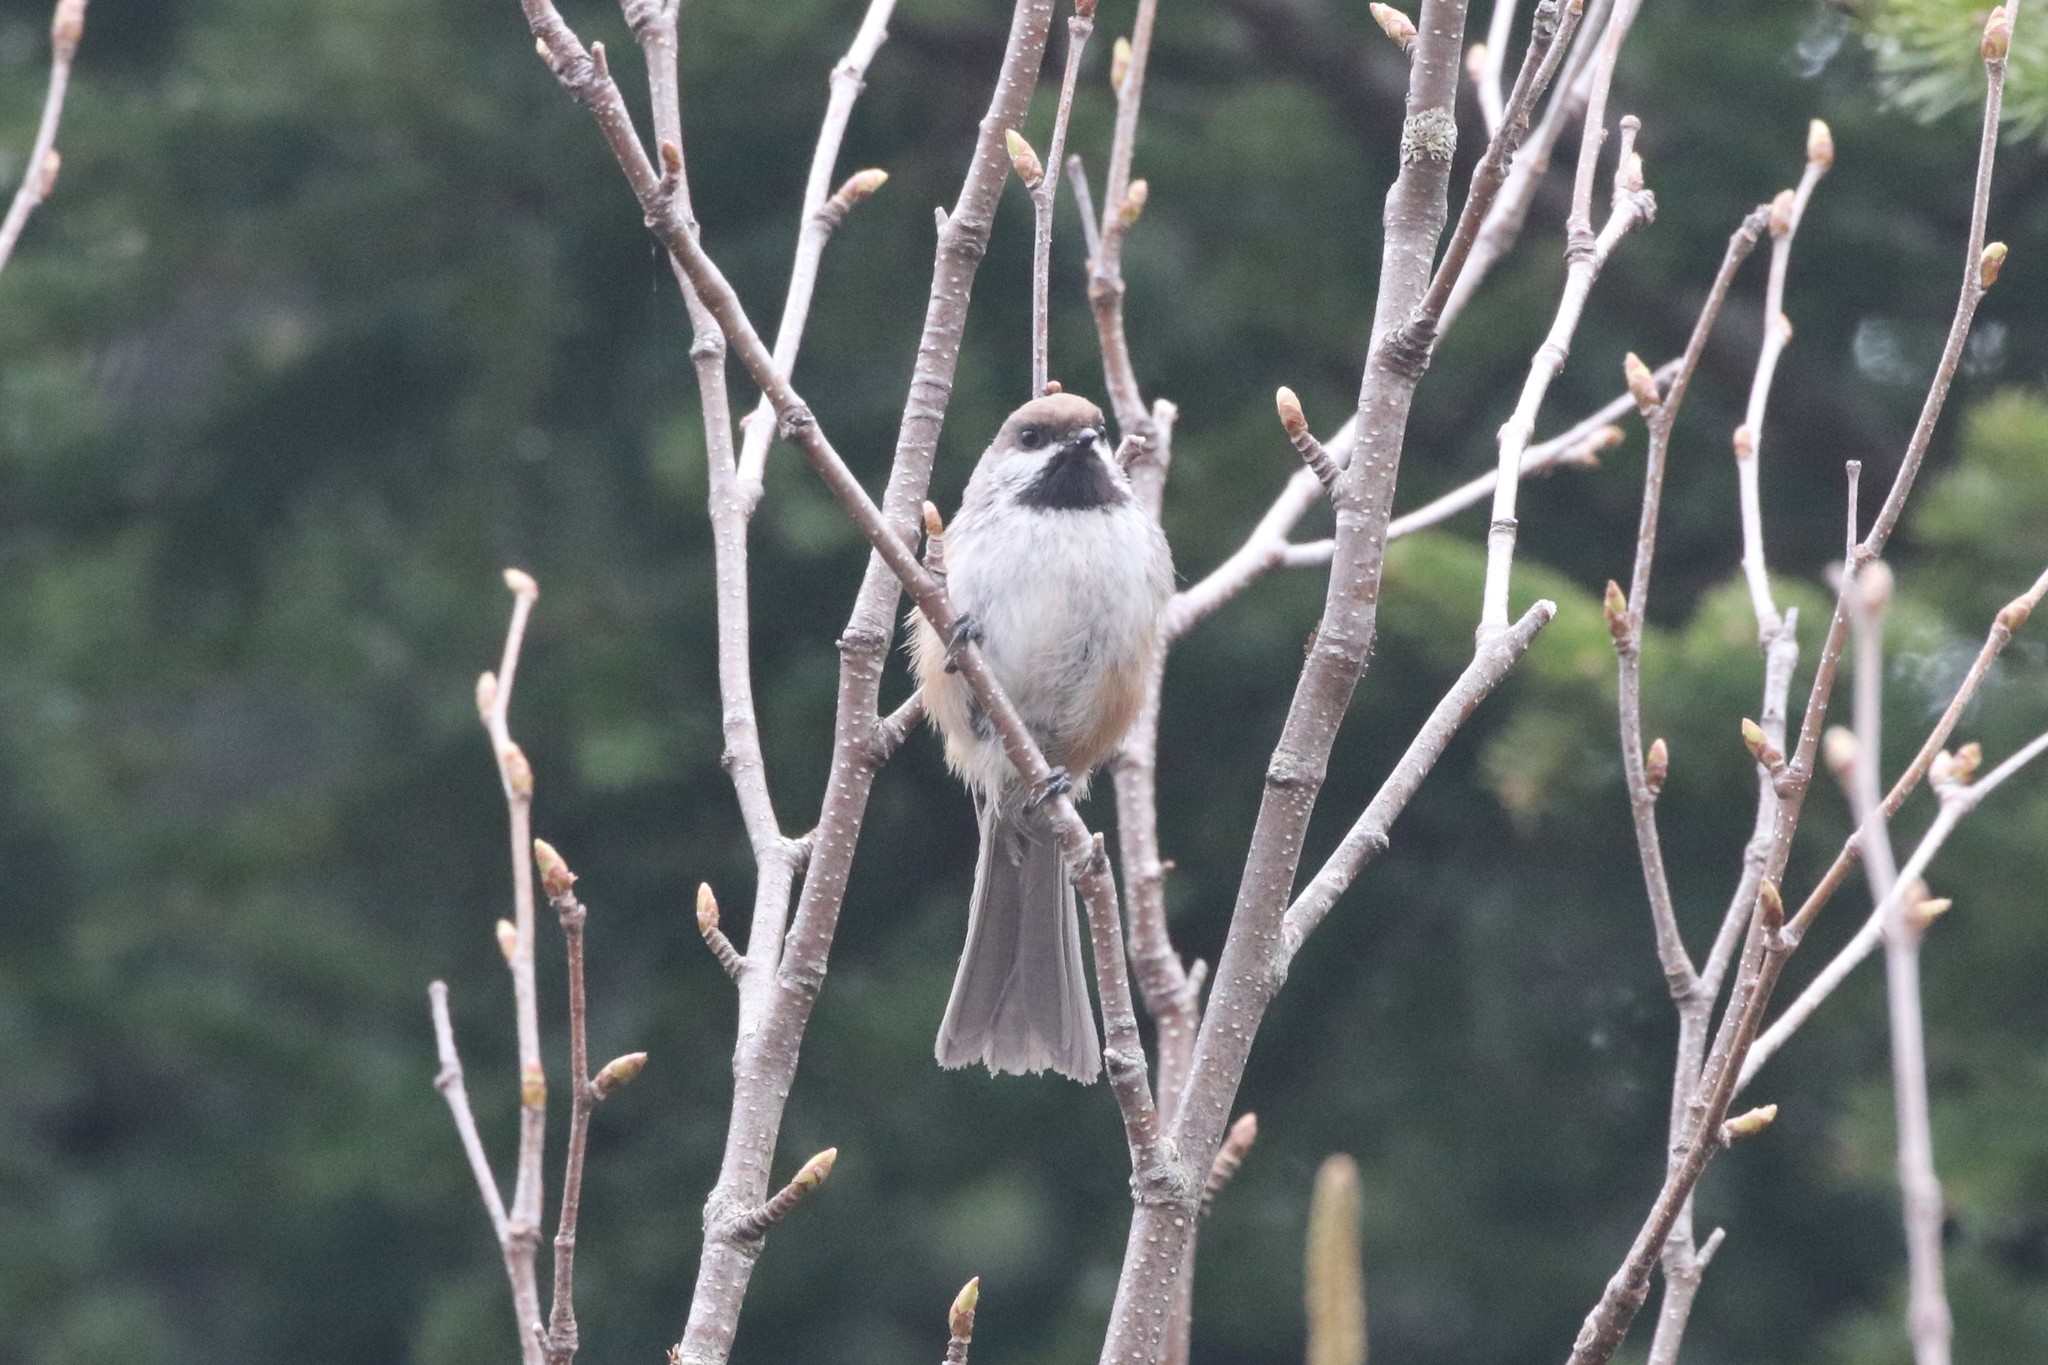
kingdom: Animalia
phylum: Chordata
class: Aves
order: Passeriformes
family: Paridae
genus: Poecile
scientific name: Poecile hudsonicus
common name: Boreal chickadee
